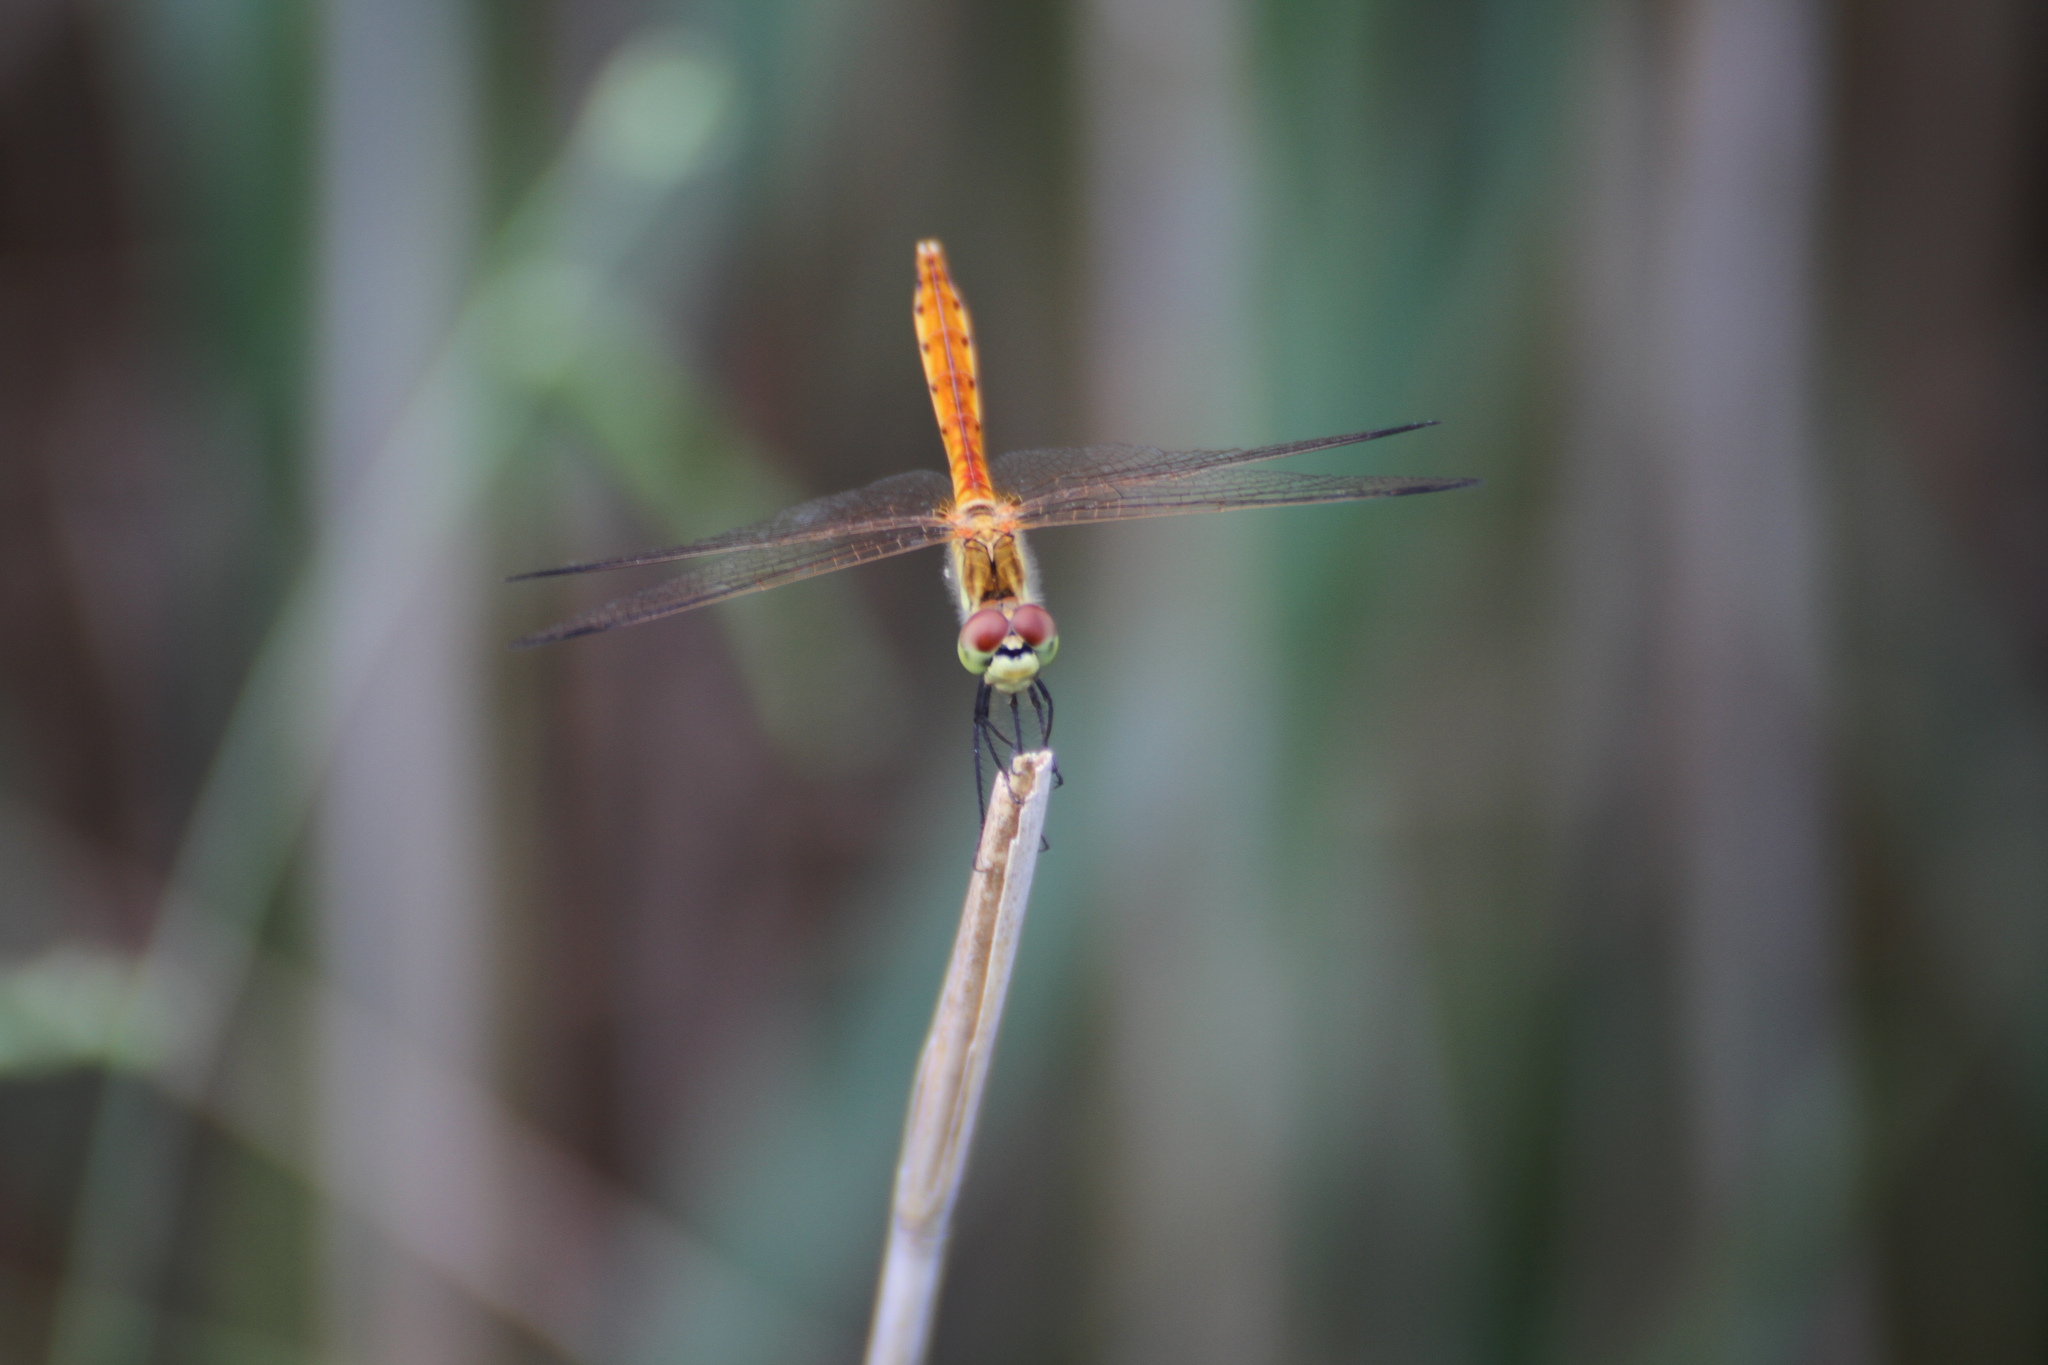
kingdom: Animalia
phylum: Arthropoda
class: Insecta
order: Odonata
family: Libellulidae
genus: Sympetrum
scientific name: Sympetrum depressiusculum
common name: Spotted darter
